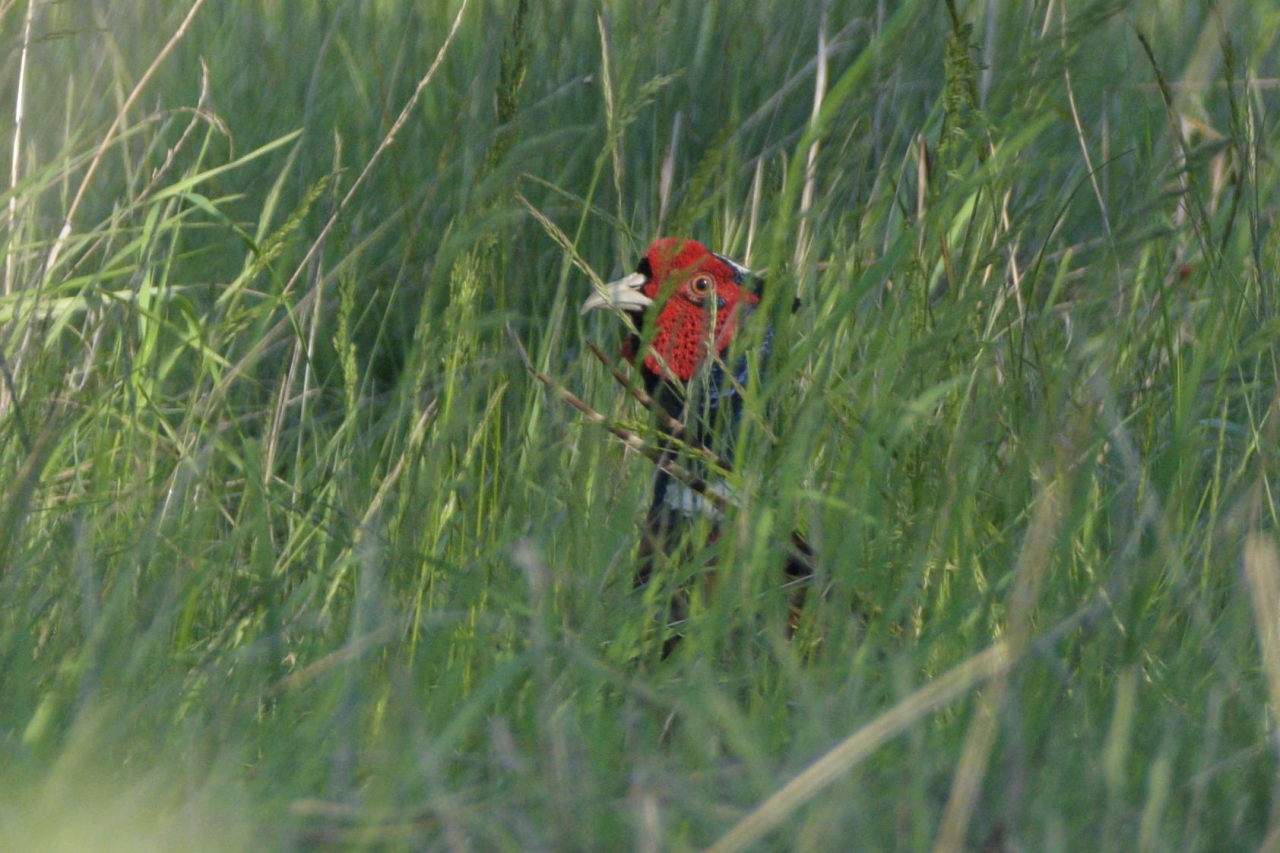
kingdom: Animalia
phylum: Chordata
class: Aves
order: Galliformes
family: Phasianidae
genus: Phasianus
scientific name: Phasianus colchicus
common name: Common pheasant
